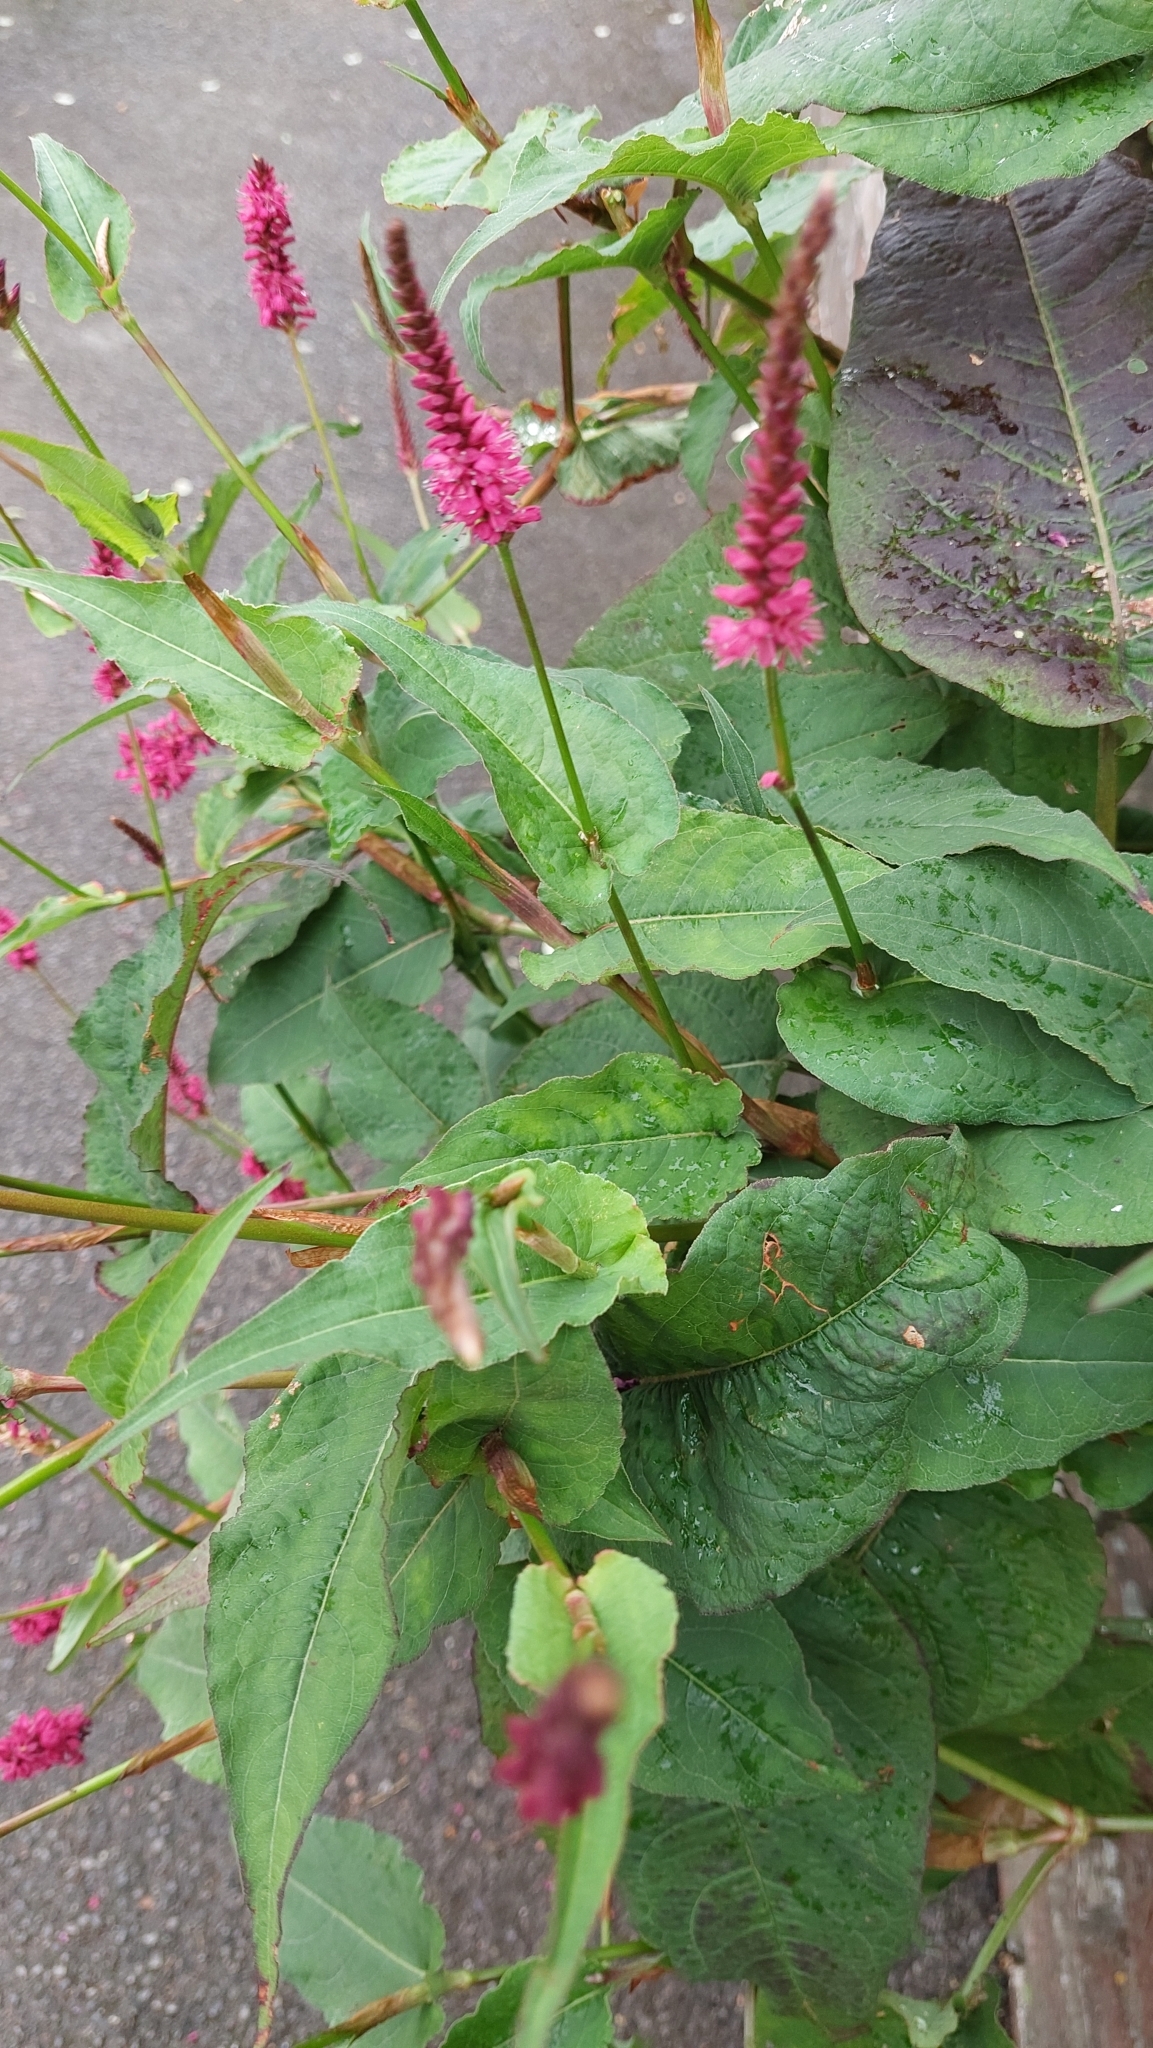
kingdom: Plantae
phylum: Tracheophyta
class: Magnoliopsida
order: Caryophyllales
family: Polygonaceae
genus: Bistorta
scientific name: Bistorta amplexicaulis
